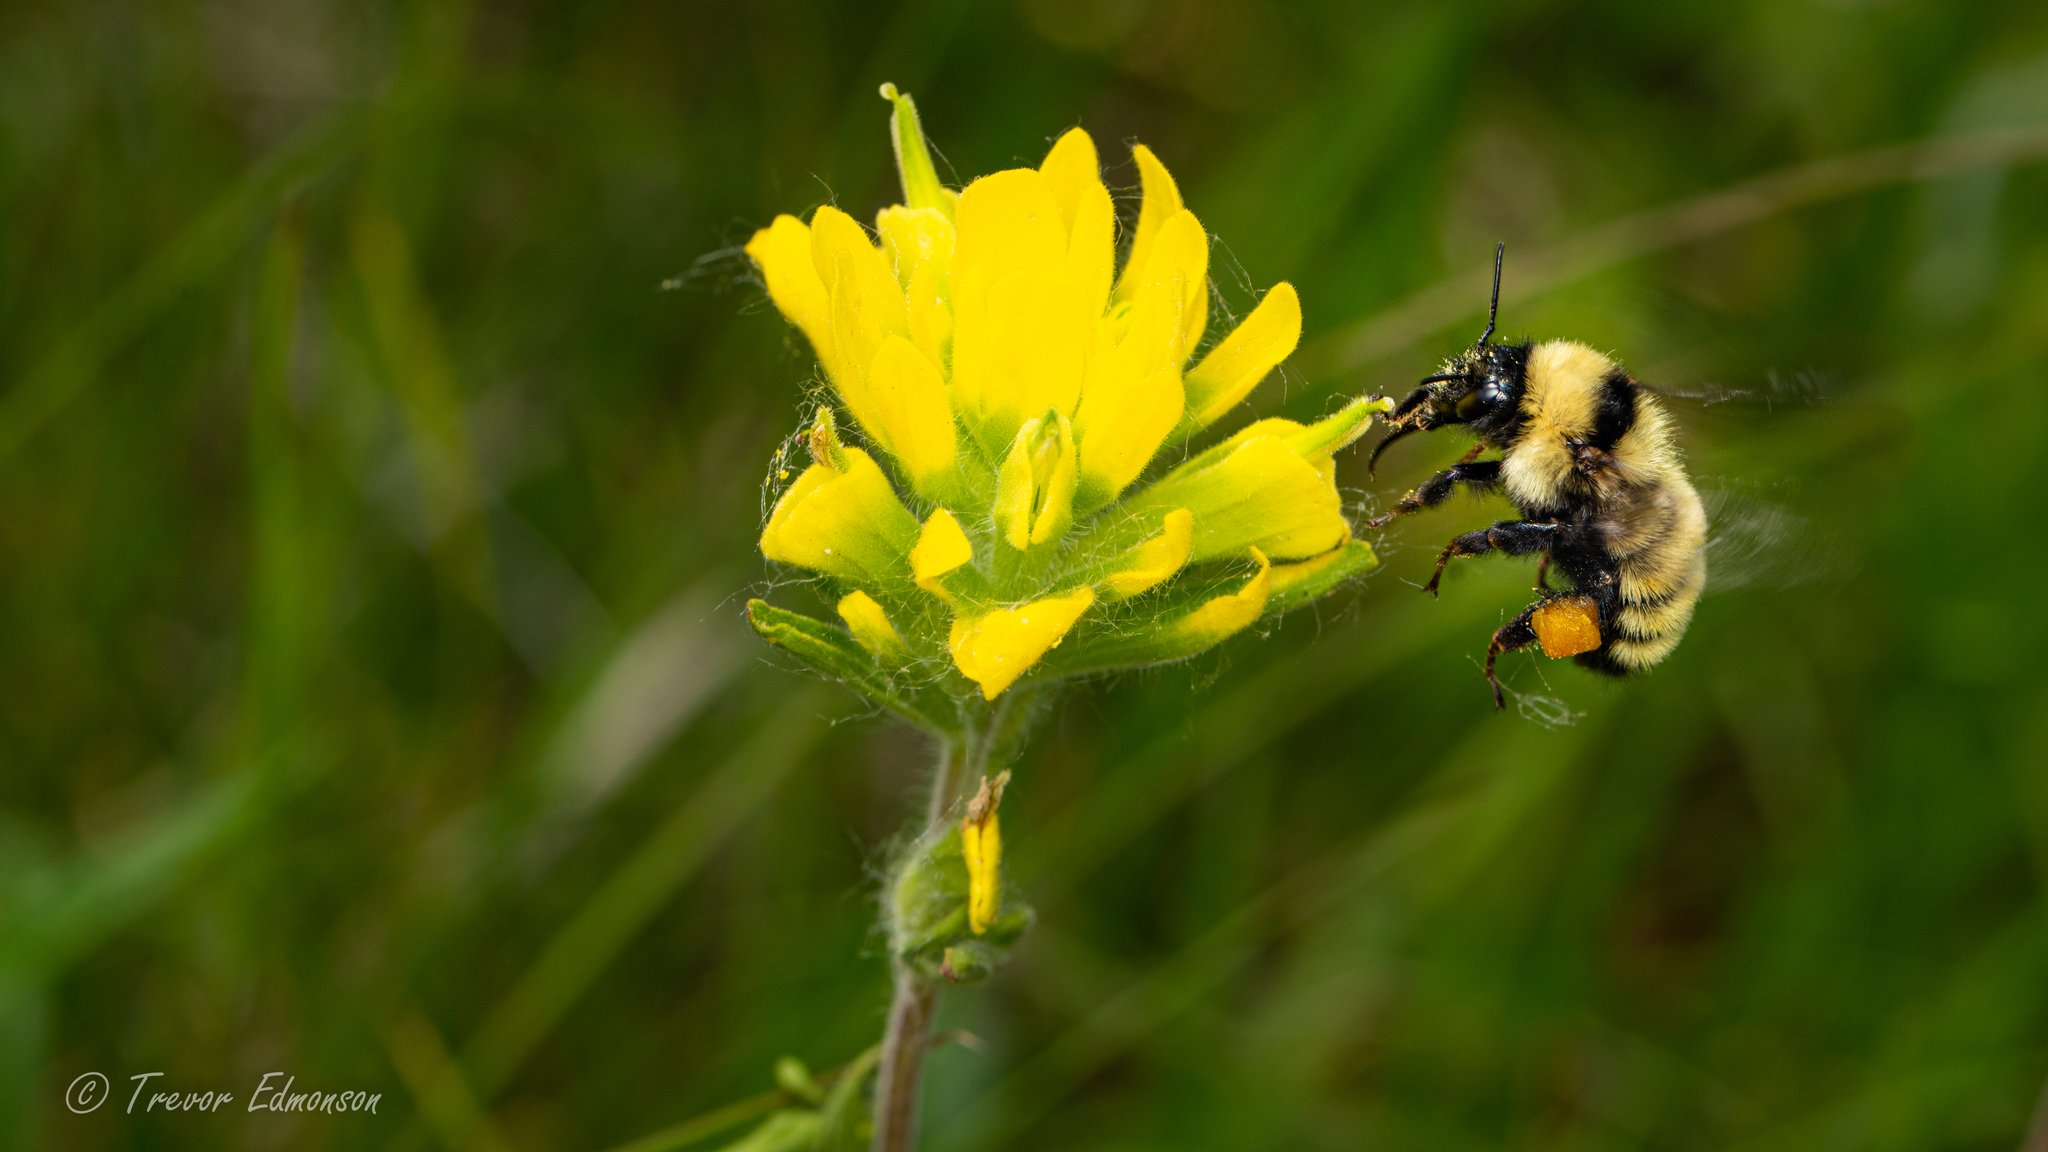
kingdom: Animalia
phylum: Arthropoda
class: Insecta
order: Hymenoptera
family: Apidae
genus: Bombus
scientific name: Bombus fervidus
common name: Yellow bumble bee
